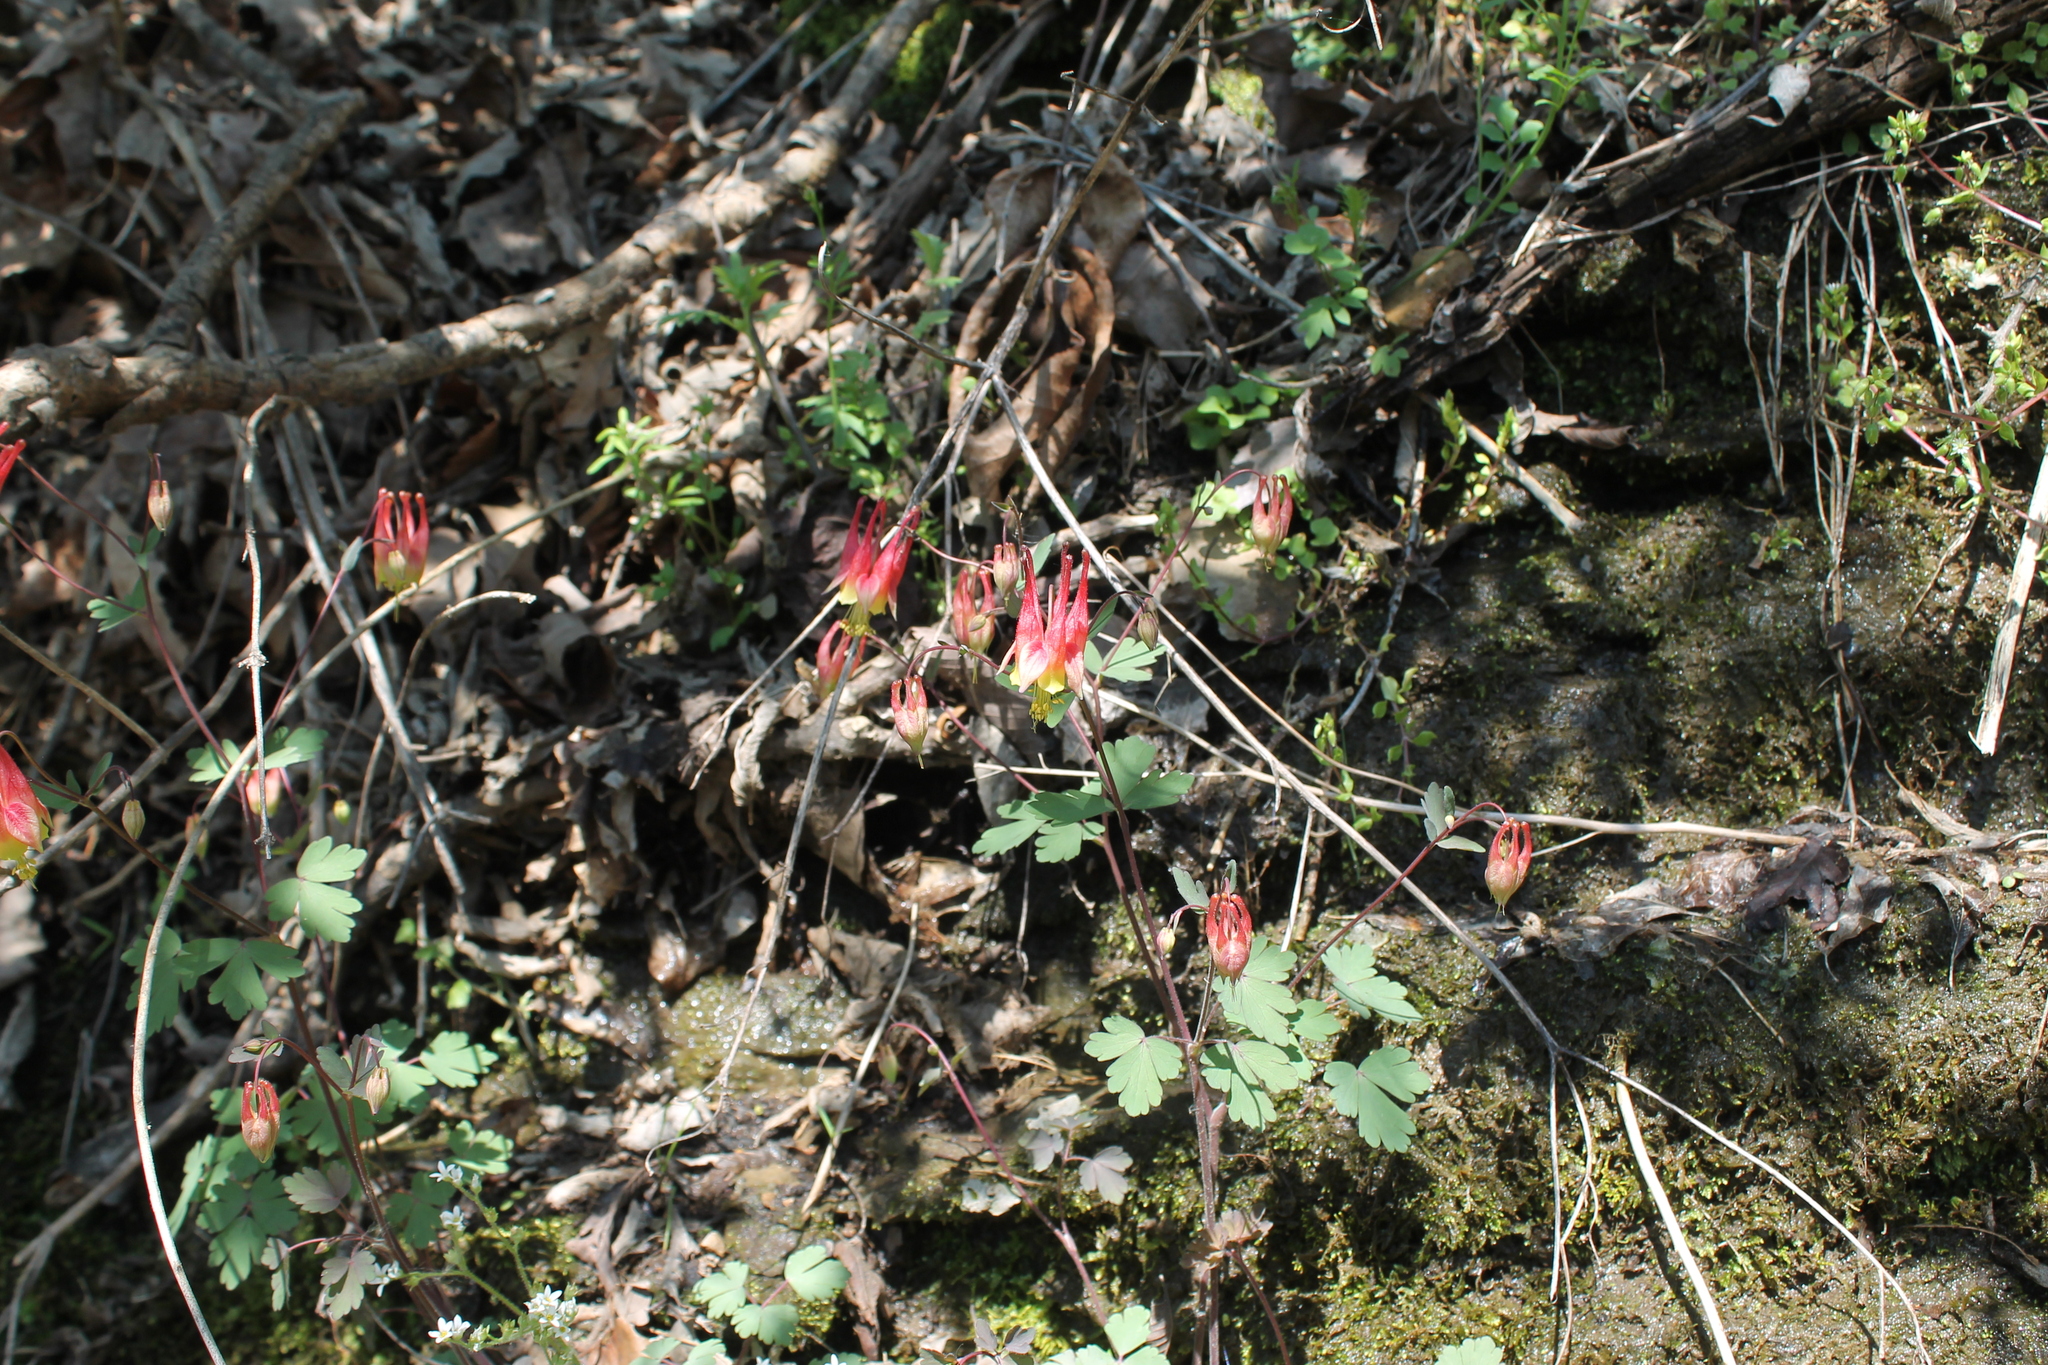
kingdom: Plantae
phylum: Tracheophyta
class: Magnoliopsida
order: Ranunculales
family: Ranunculaceae
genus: Aquilegia
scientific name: Aquilegia canadensis
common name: American columbine
